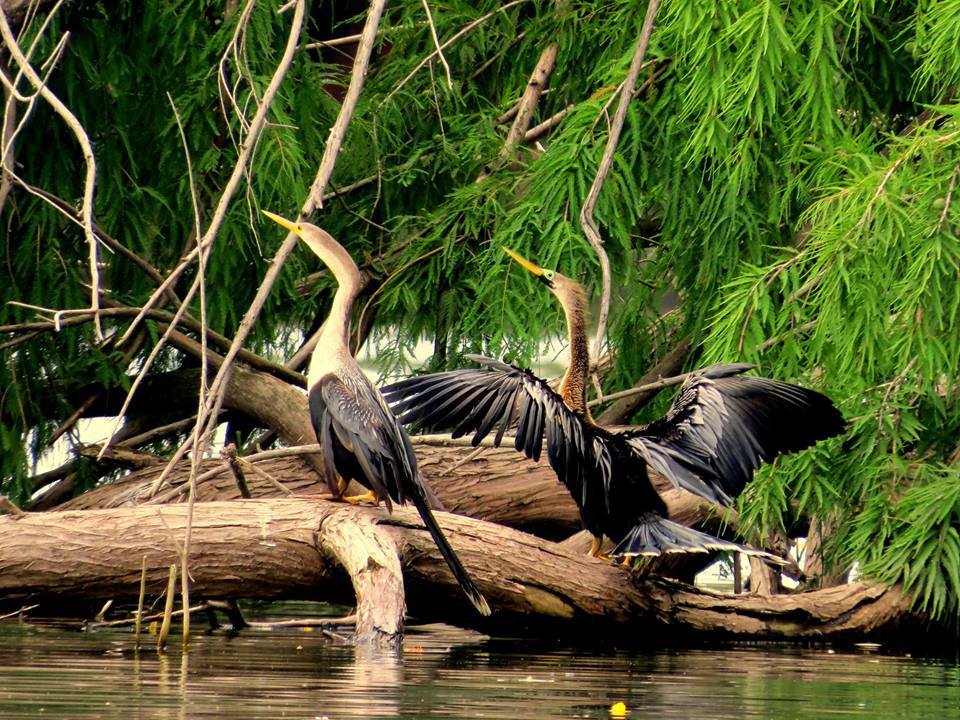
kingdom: Animalia
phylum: Chordata
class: Aves
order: Suliformes
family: Anhingidae
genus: Anhinga
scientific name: Anhinga anhinga
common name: Anhinga
